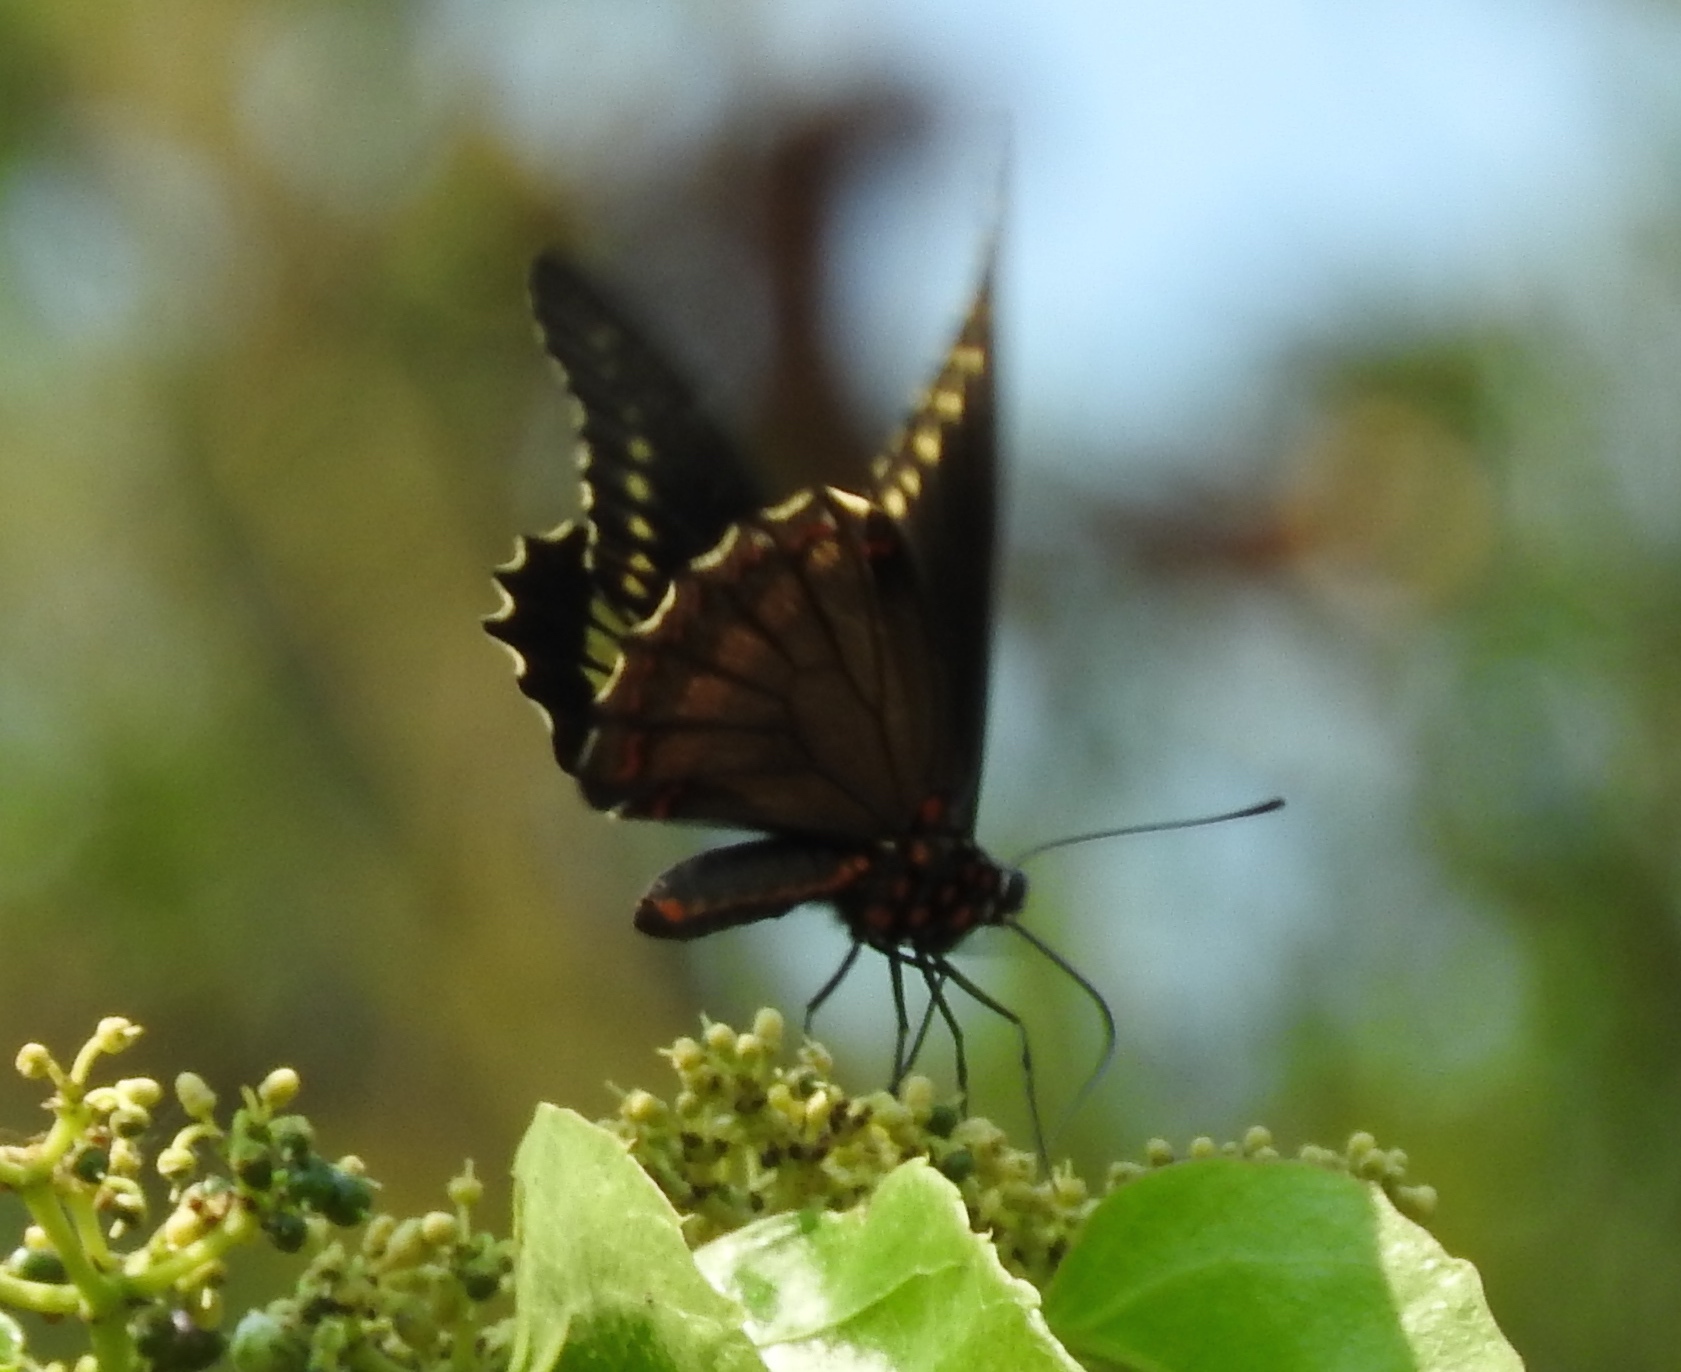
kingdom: Animalia
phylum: Arthropoda
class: Insecta
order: Lepidoptera
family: Papilionidae
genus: Battus
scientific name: Battus polydamas
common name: Polydamas swallowtail
